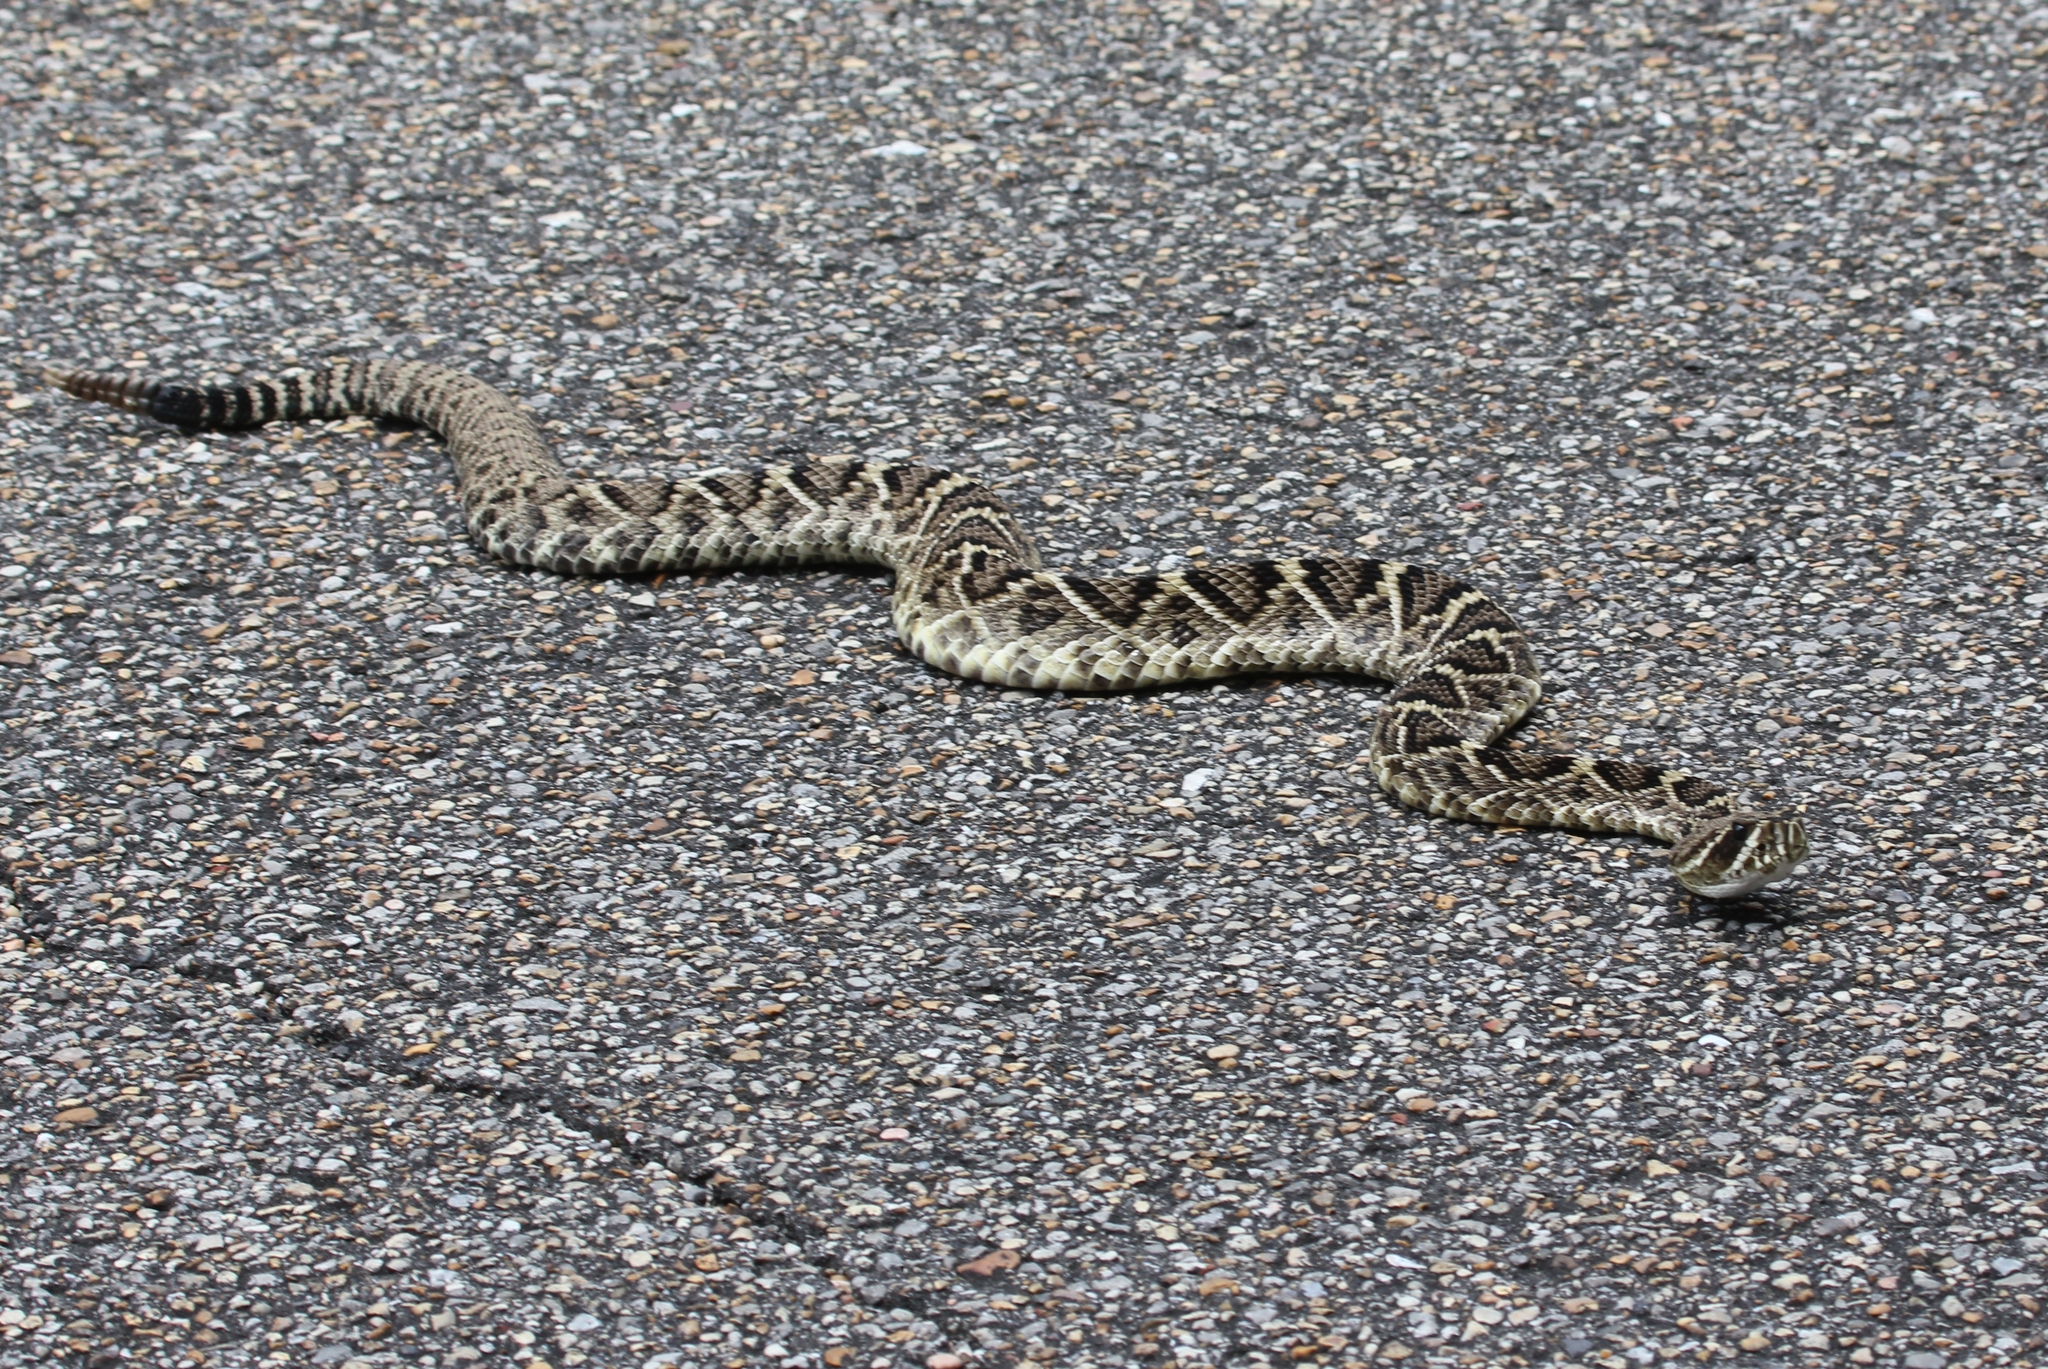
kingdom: Animalia
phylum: Chordata
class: Squamata
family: Viperidae
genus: Crotalus
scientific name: Crotalus adamanteus
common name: Eastern diamondback rattlesnake
